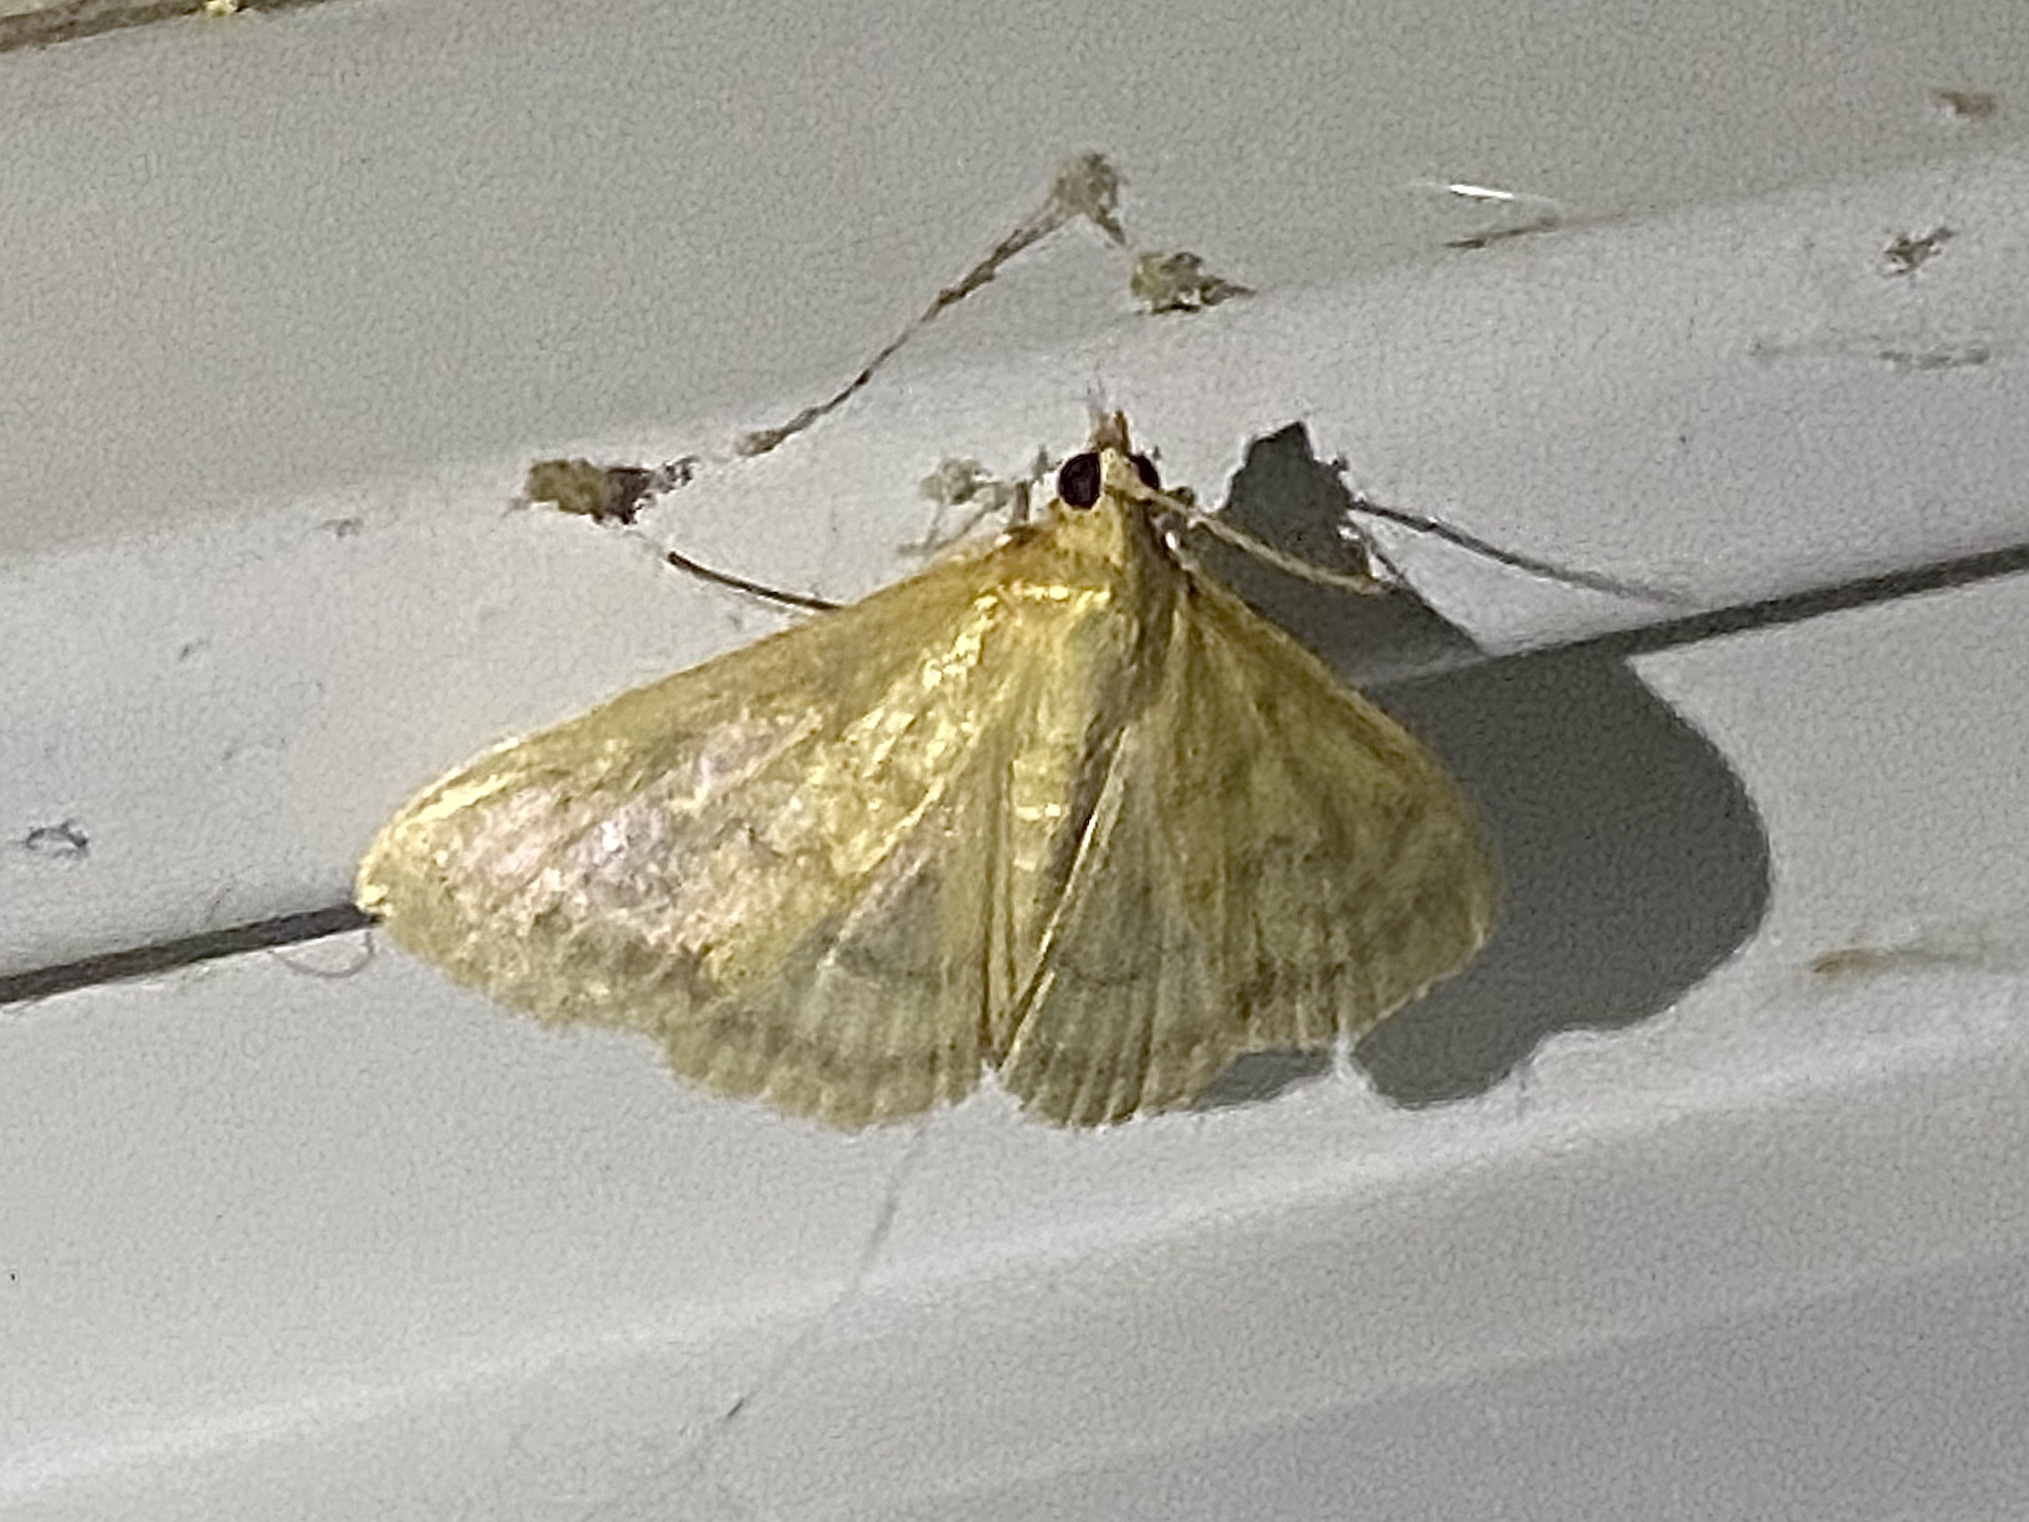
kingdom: Animalia
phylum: Arthropoda
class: Insecta
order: Lepidoptera
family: Crambidae
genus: Crocidophora
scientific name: Crocidophora tuberculalis
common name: Pale-winged crocidiphora moth
